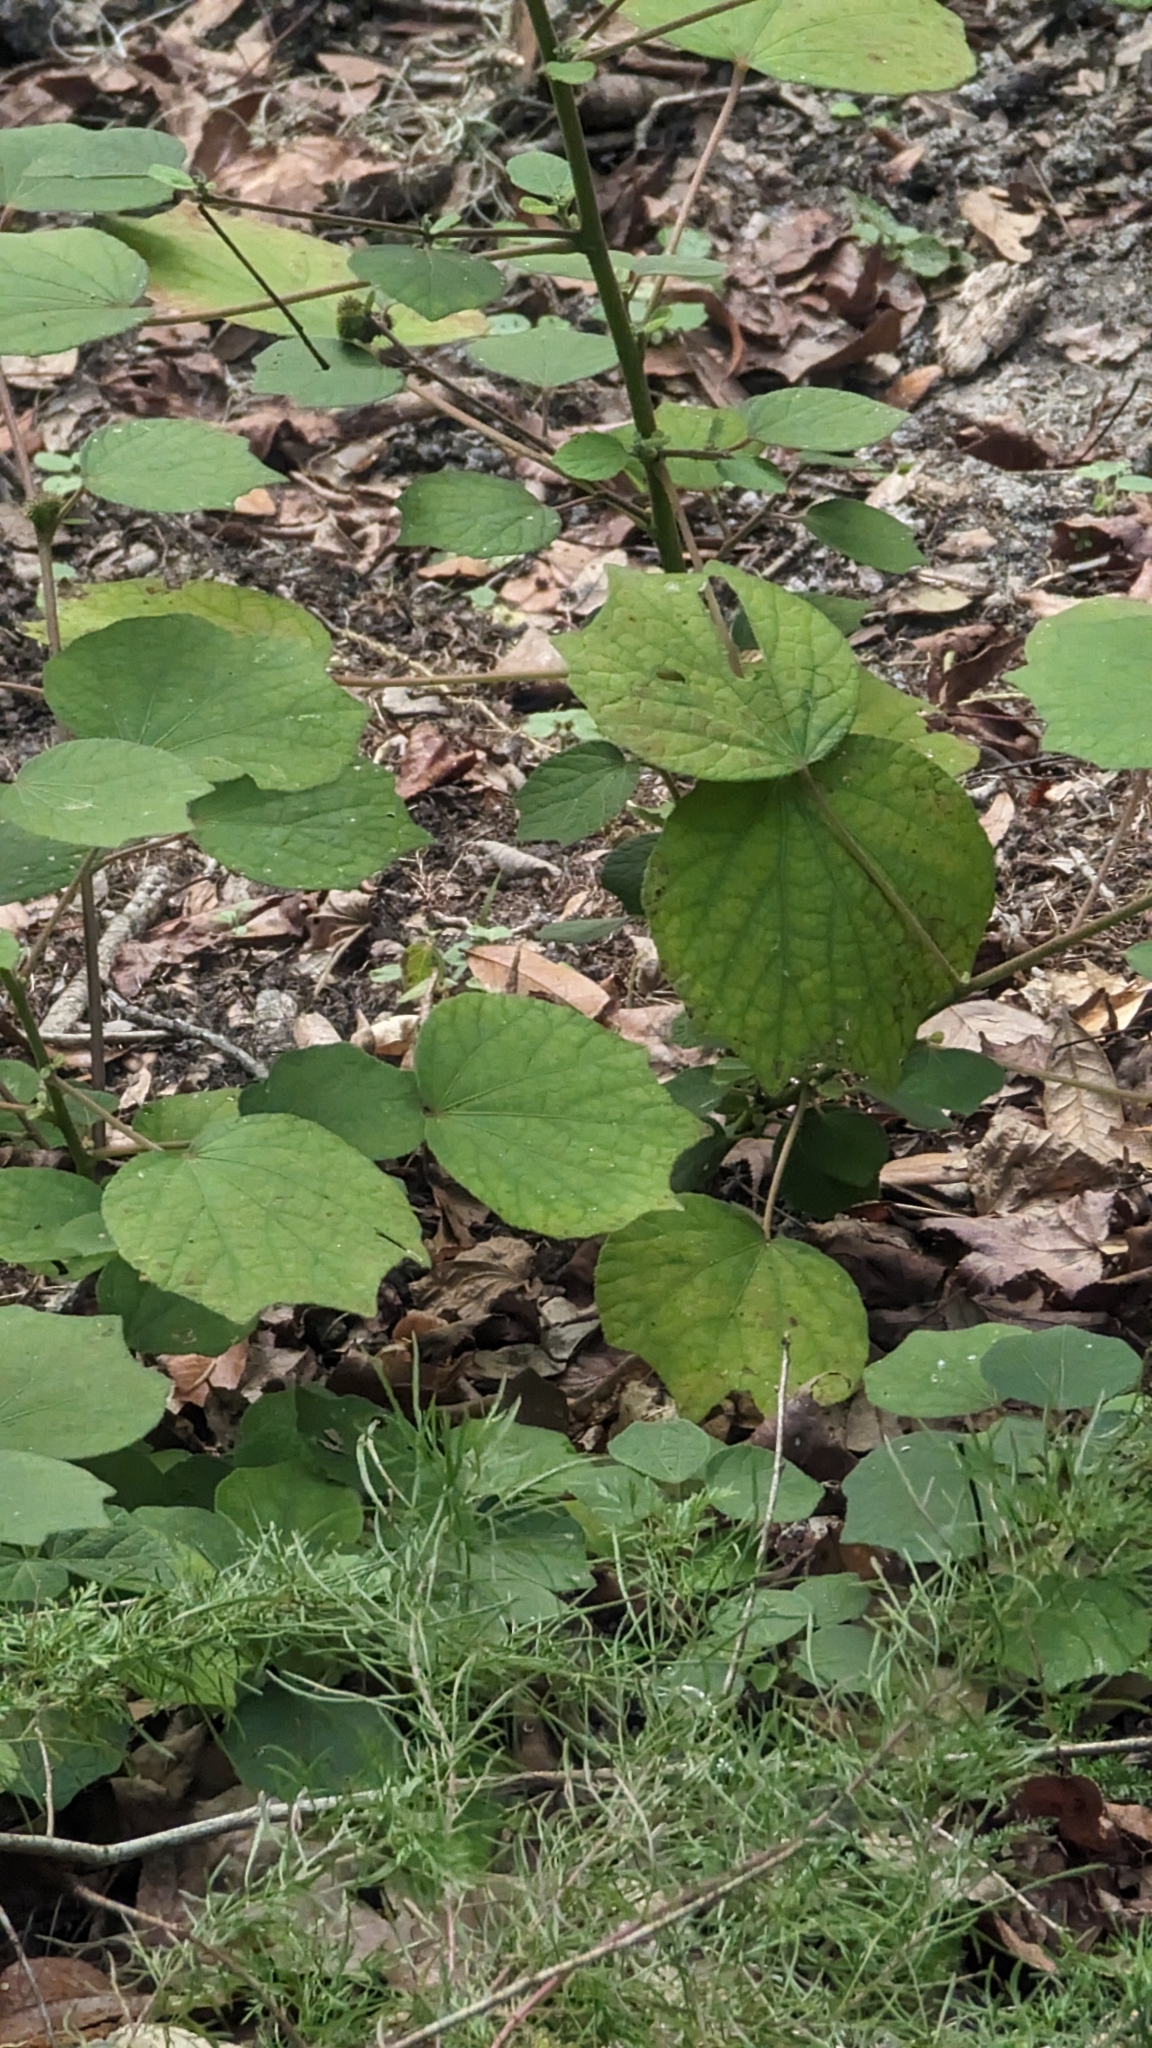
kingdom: Plantae
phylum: Tracheophyta
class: Magnoliopsida
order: Malvales
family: Malvaceae
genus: Urena
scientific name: Urena lobata
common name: Caesarweed
